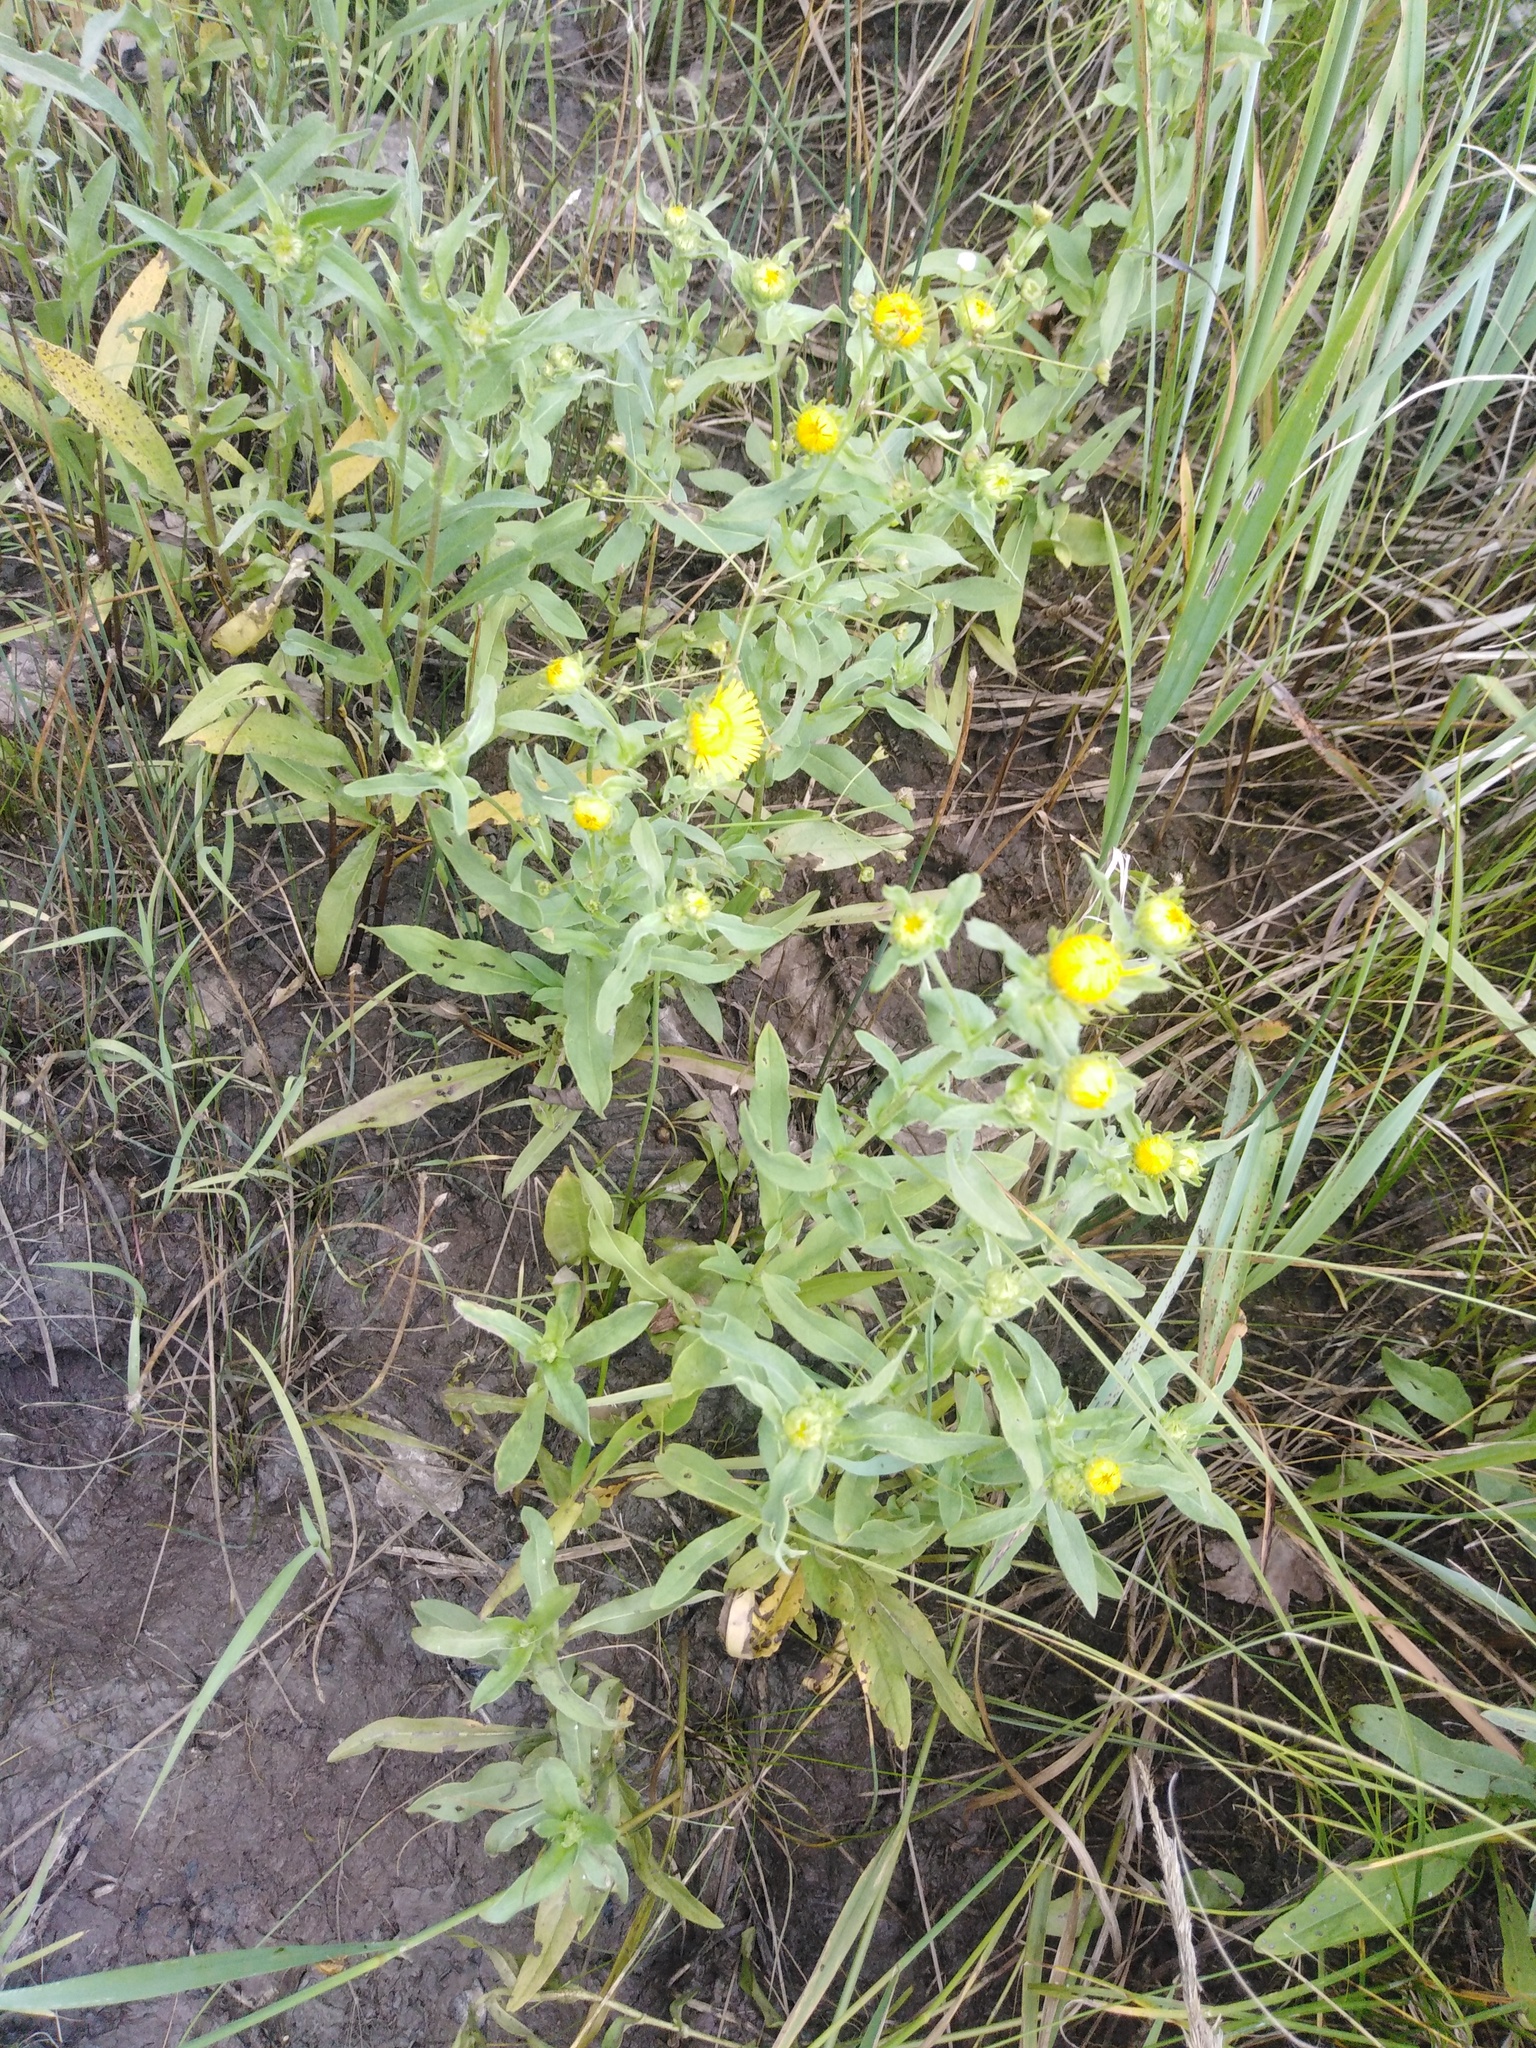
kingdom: Plantae
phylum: Tracheophyta
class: Magnoliopsida
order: Asterales
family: Asteraceae
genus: Pentanema
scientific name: Pentanema britannicum
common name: British elecampane
